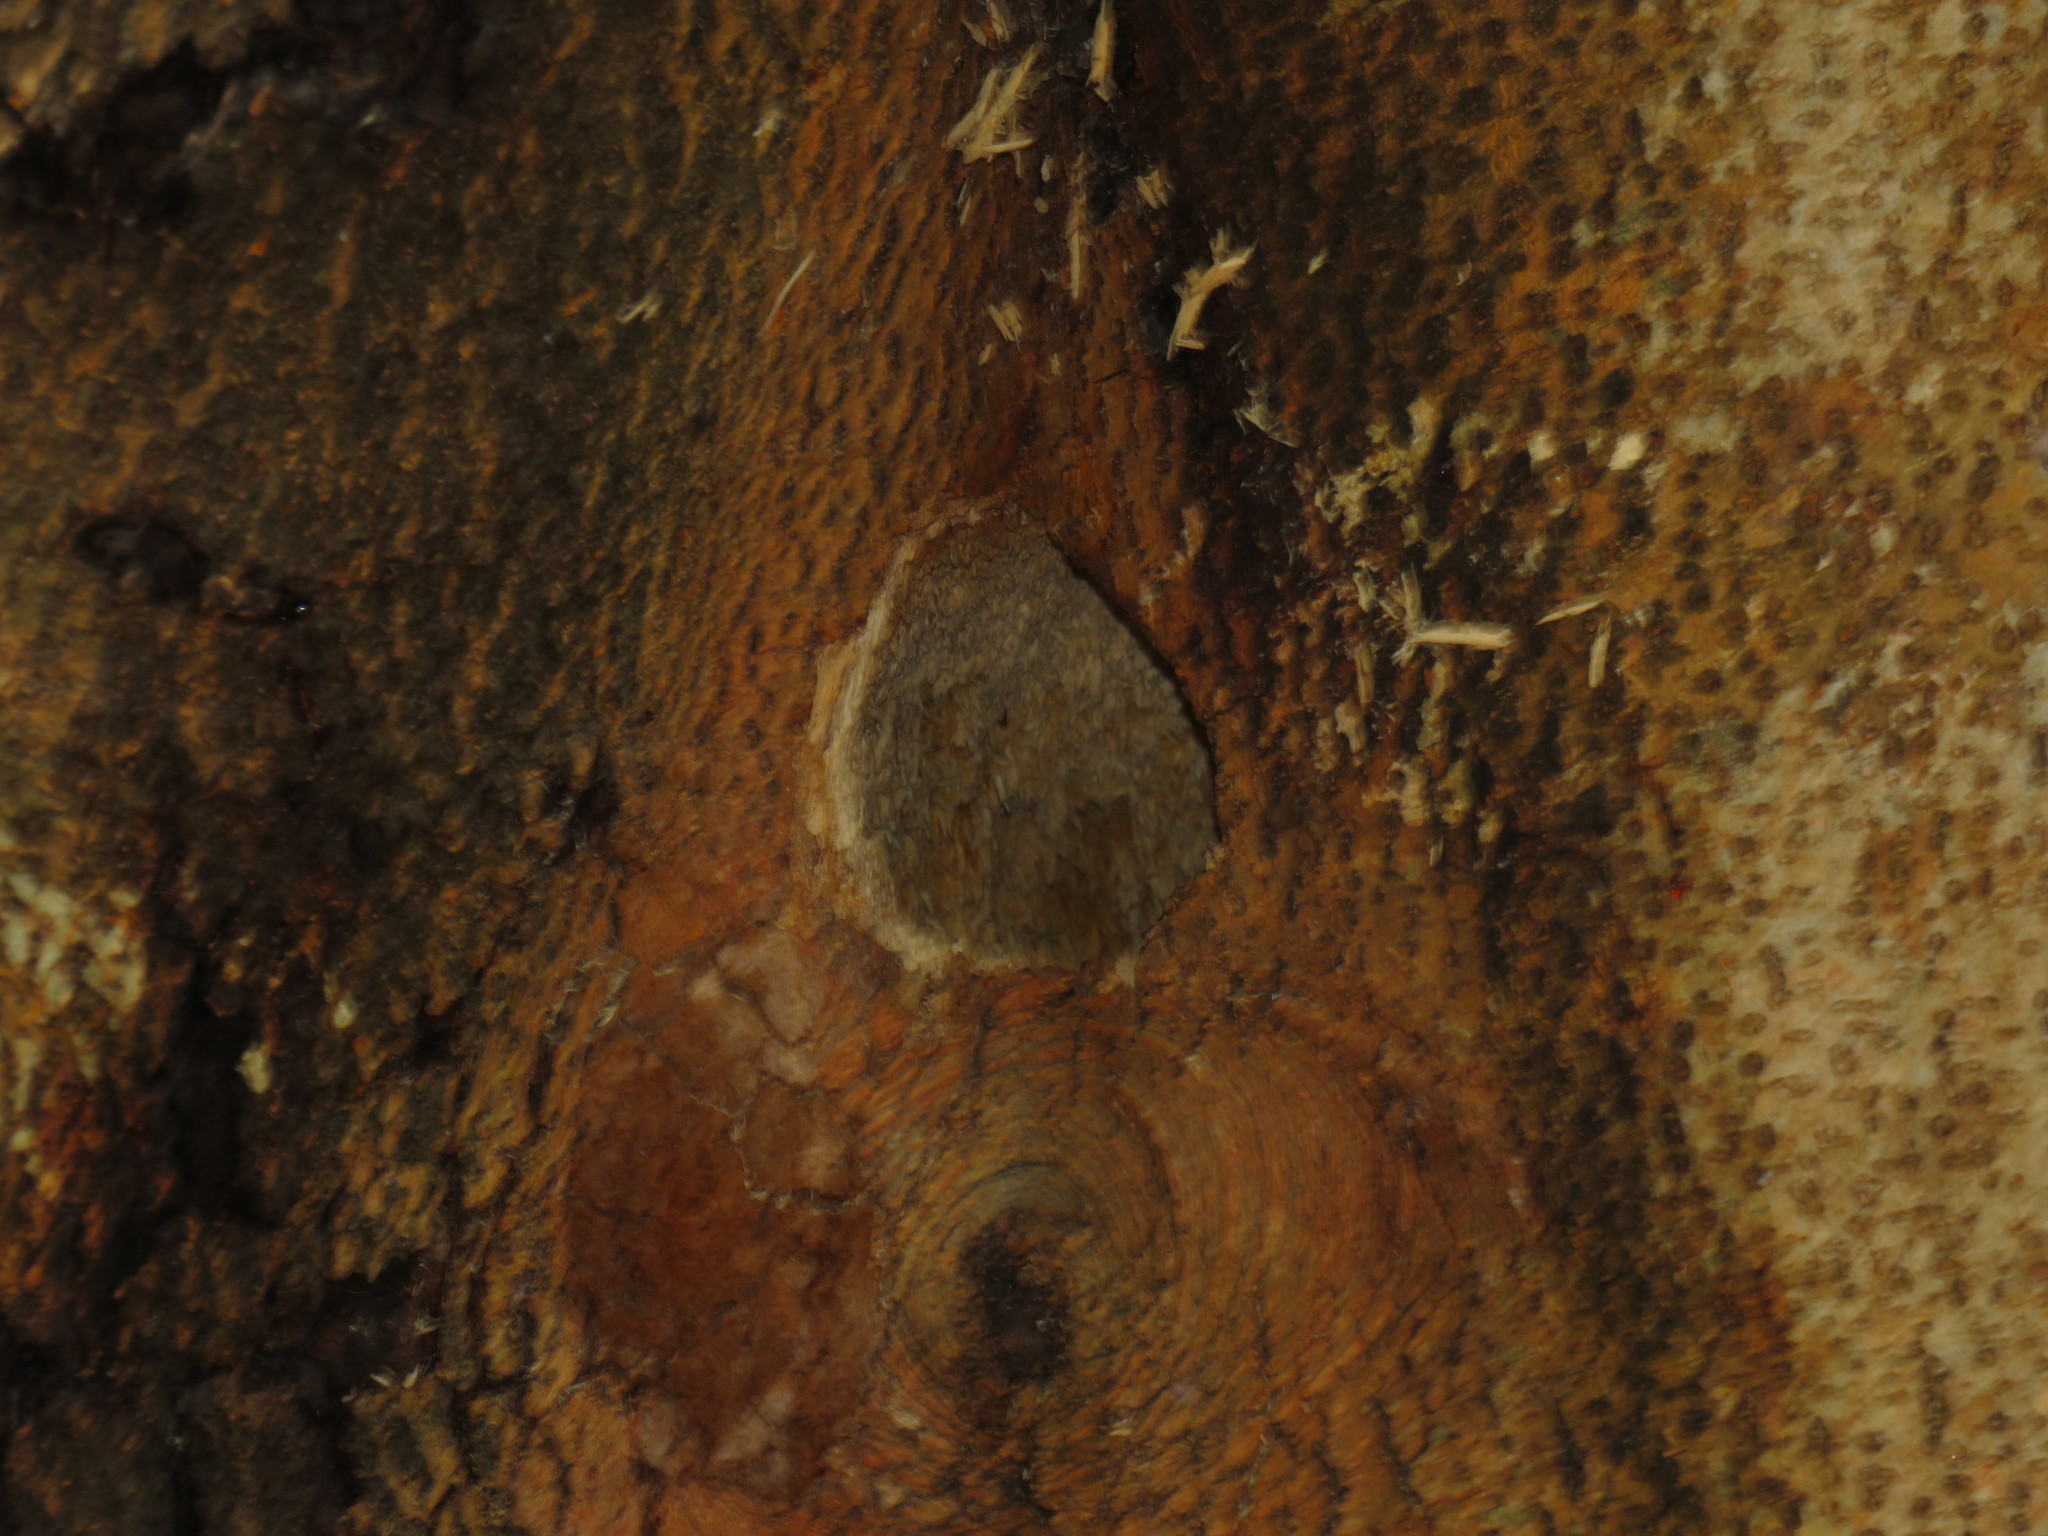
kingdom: Animalia
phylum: Chordata
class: Aves
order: Piciformes
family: Picidae
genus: Dendropicos
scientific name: Dendropicos griseocephalus
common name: Olive woodpecker
